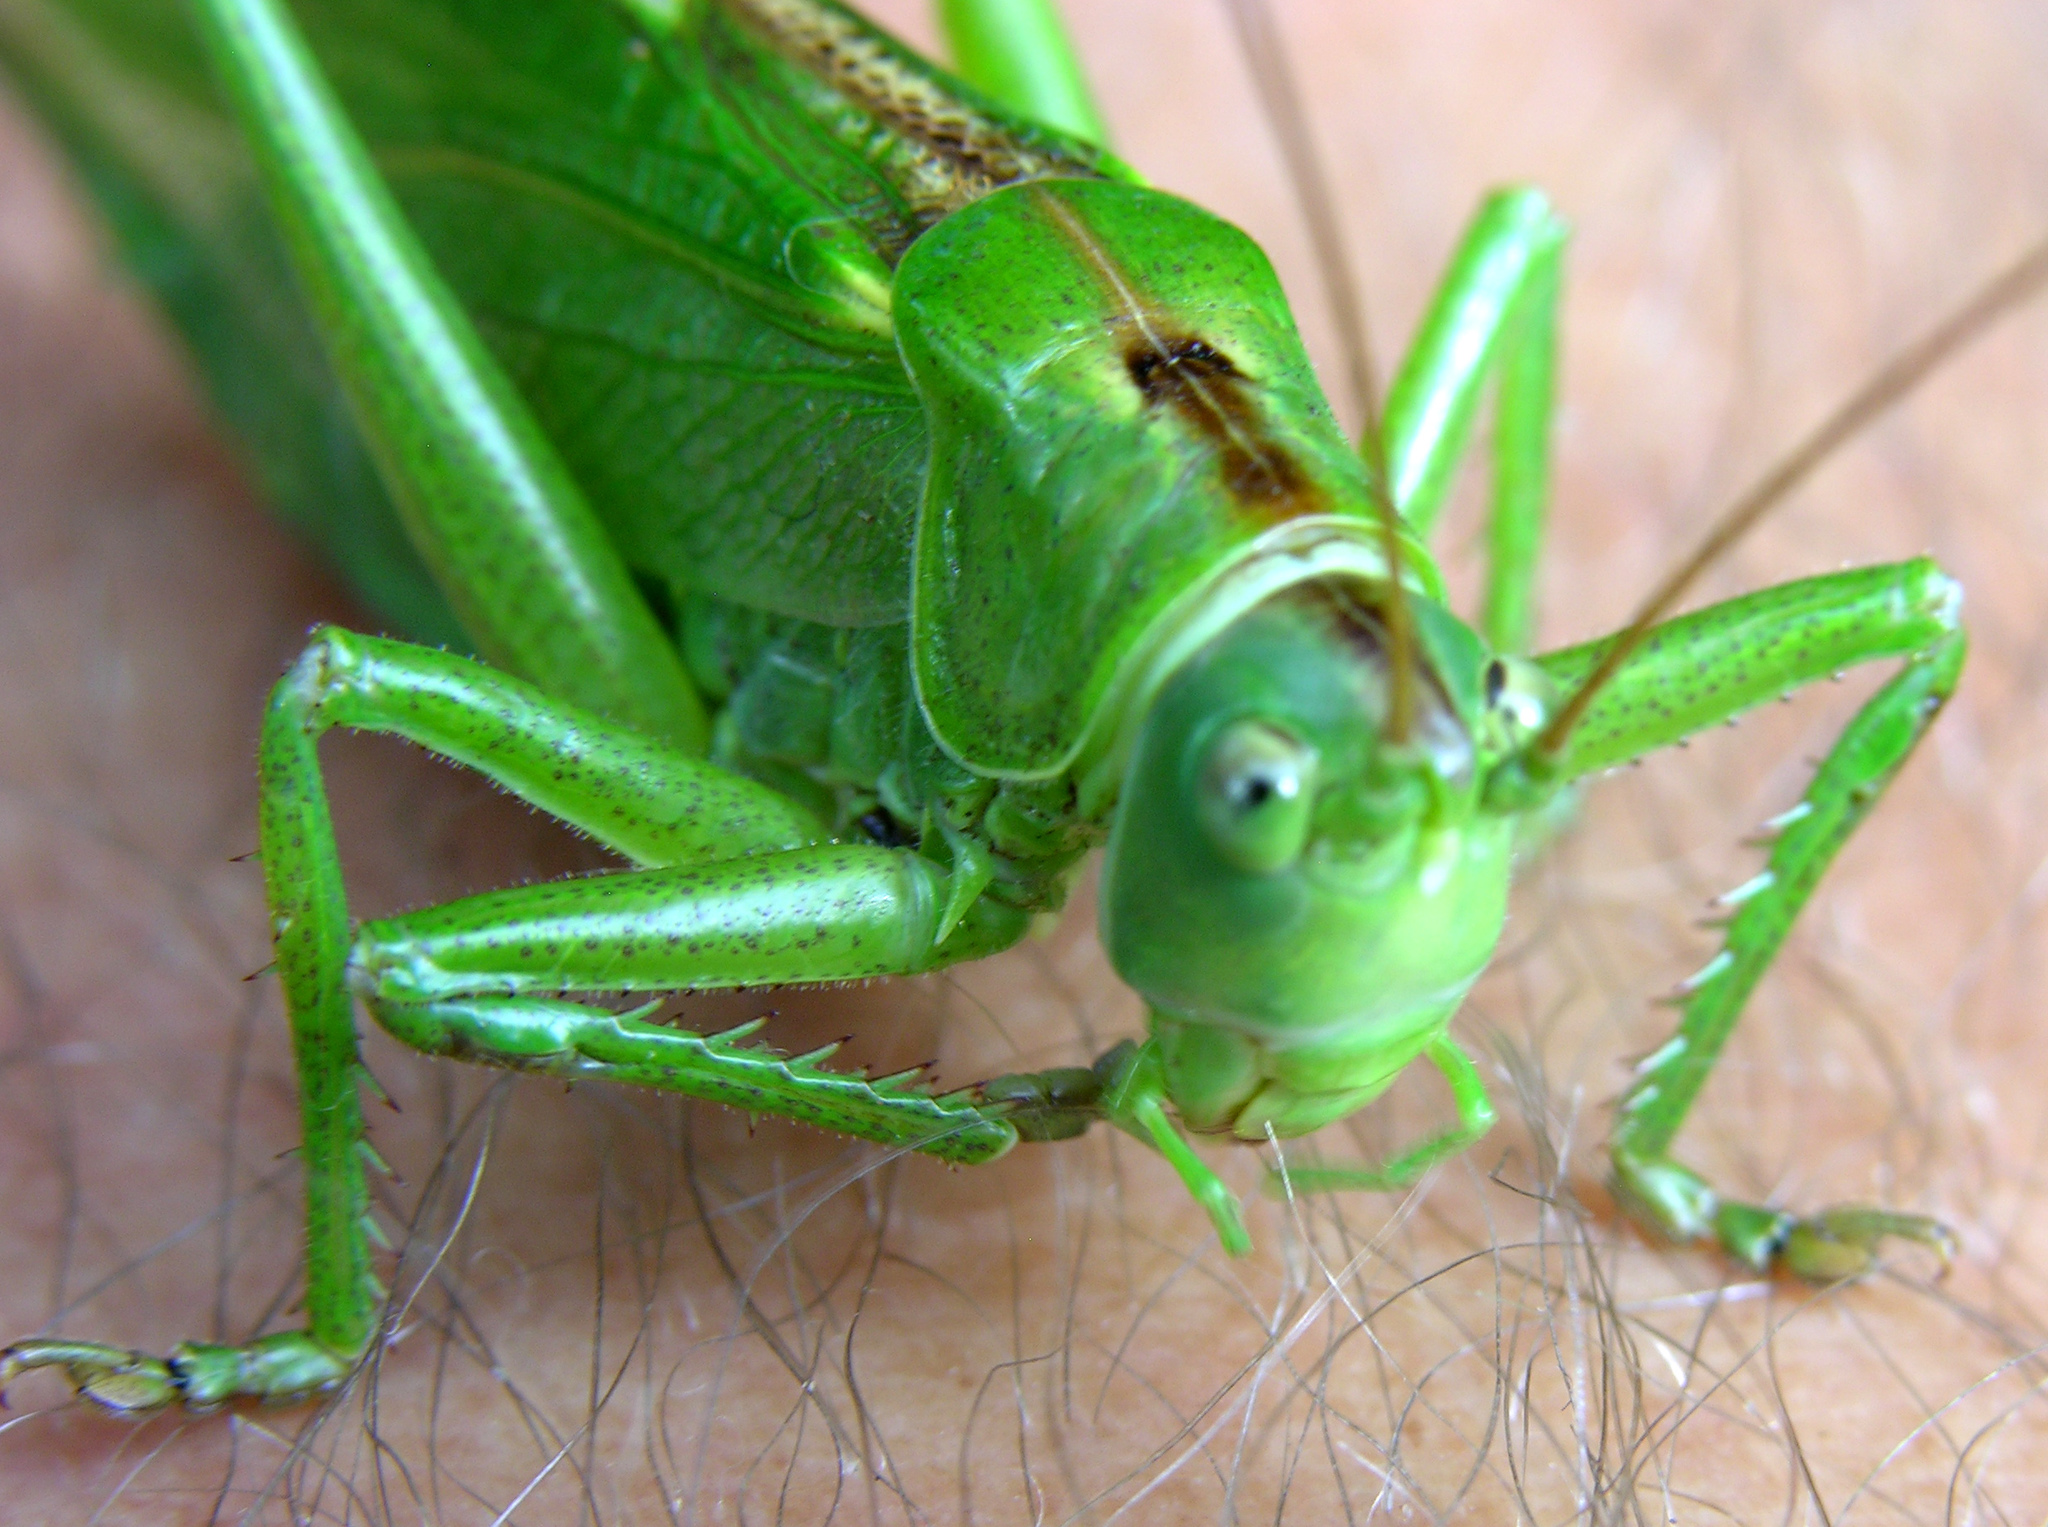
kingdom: Animalia
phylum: Arthropoda
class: Insecta
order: Orthoptera
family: Tettigoniidae
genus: Tettigonia
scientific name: Tettigonia viridissima
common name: Great green bush-cricket
